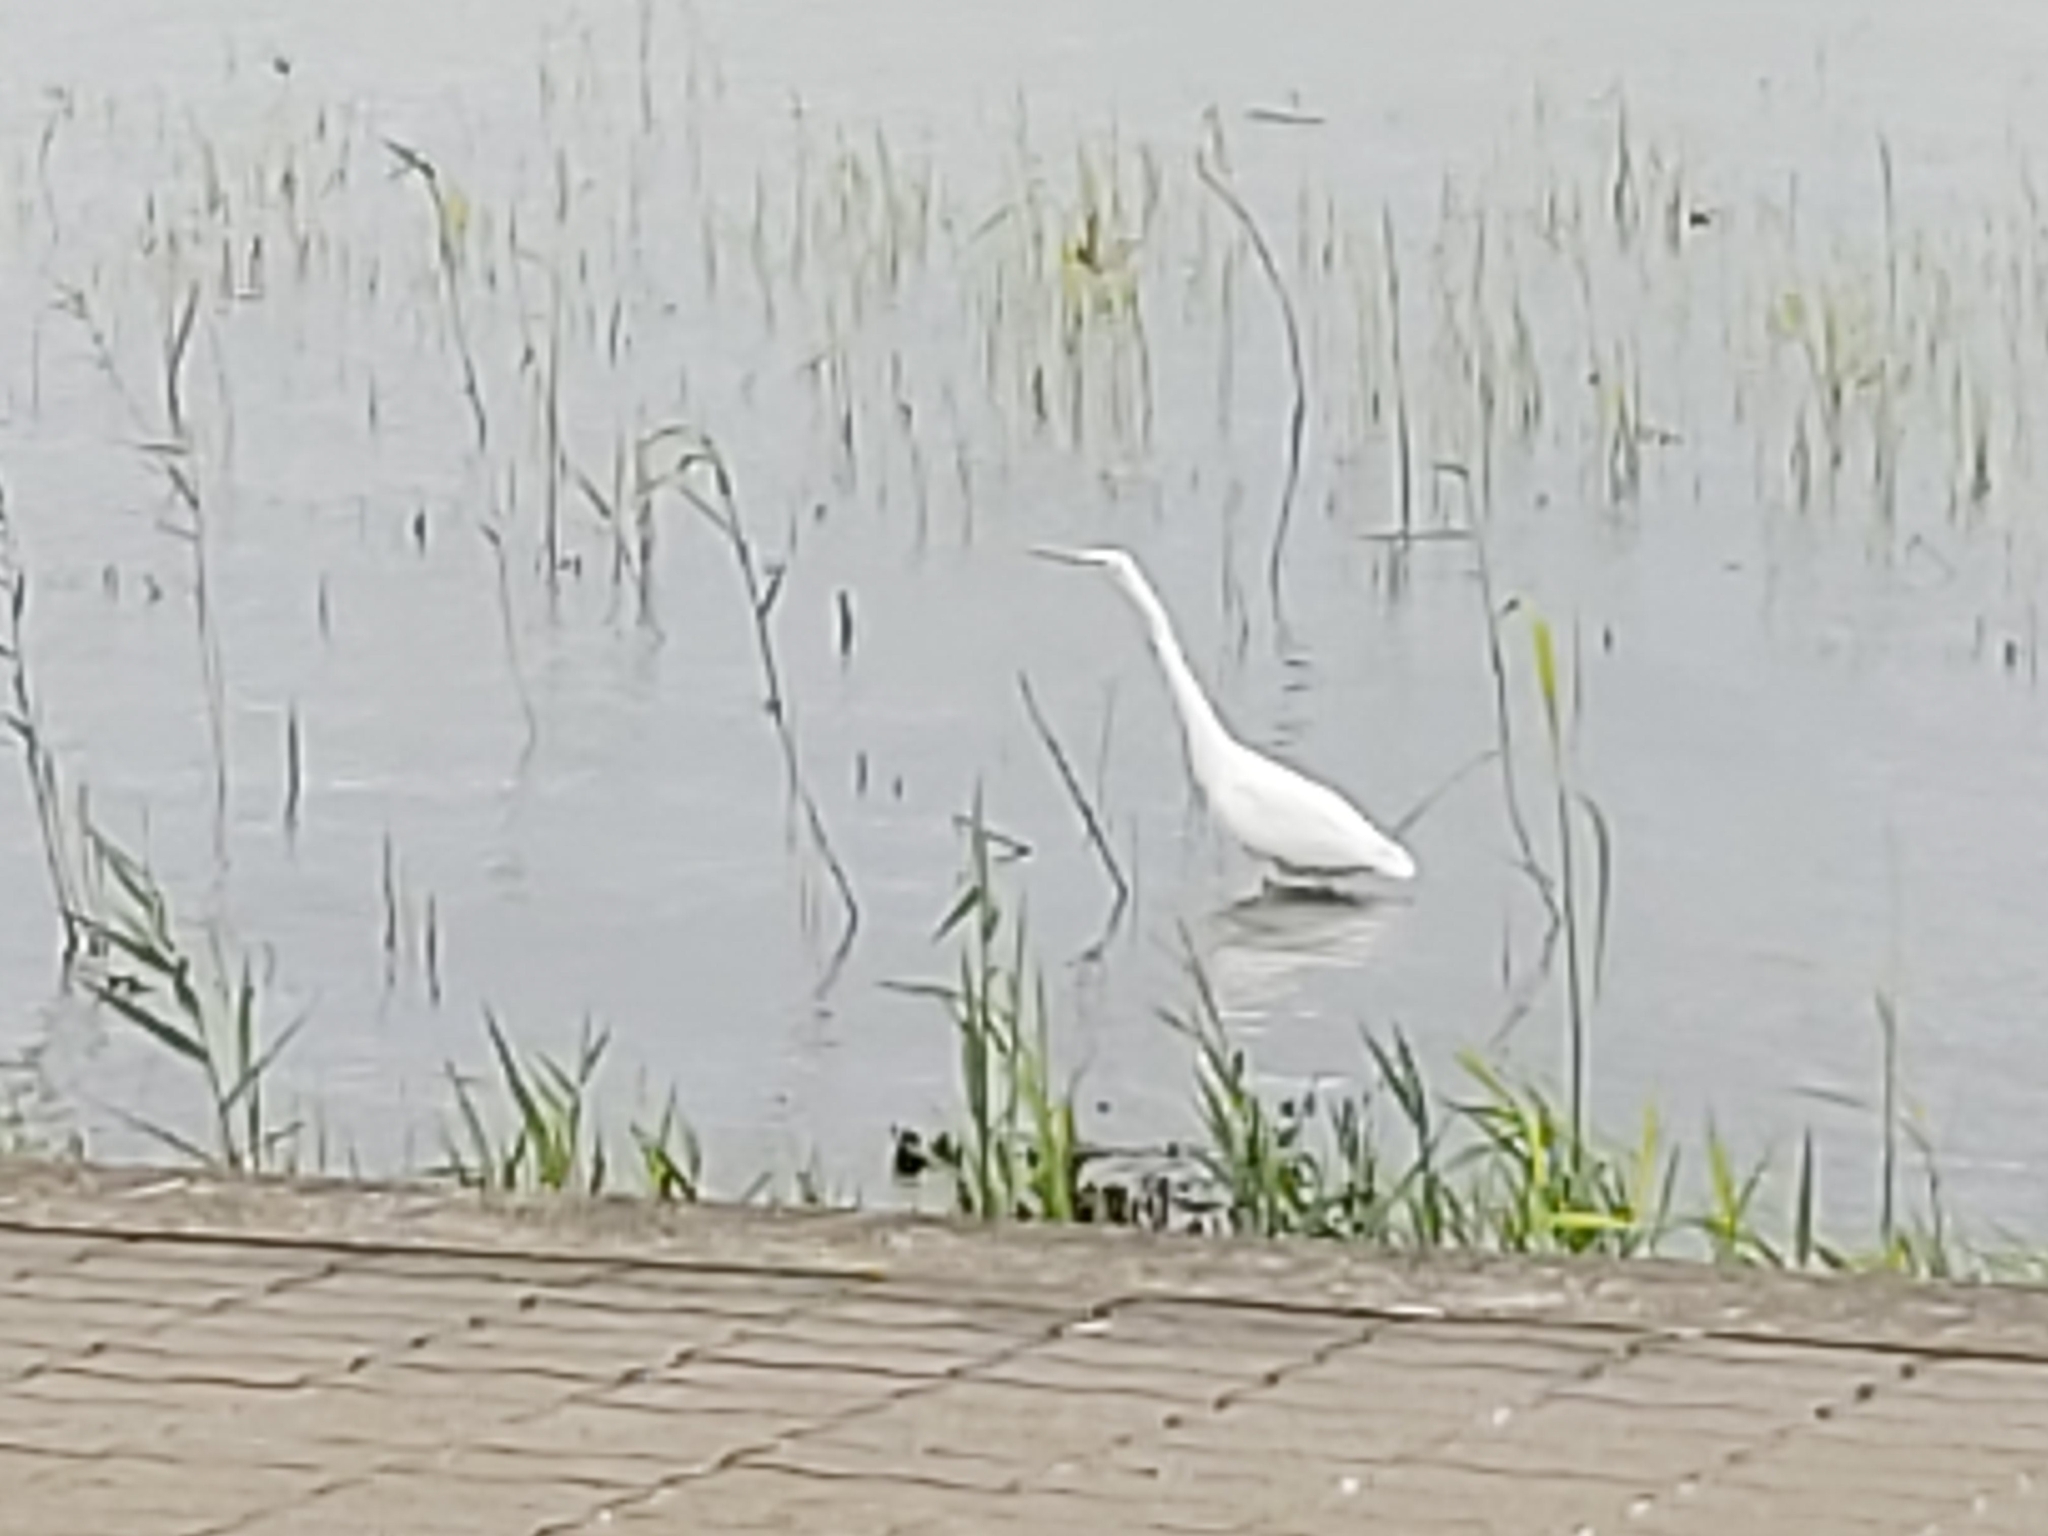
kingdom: Animalia
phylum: Chordata
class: Aves
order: Pelecaniformes
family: Ardeidae
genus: Ardea
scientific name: Ardea alba
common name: Great egret
